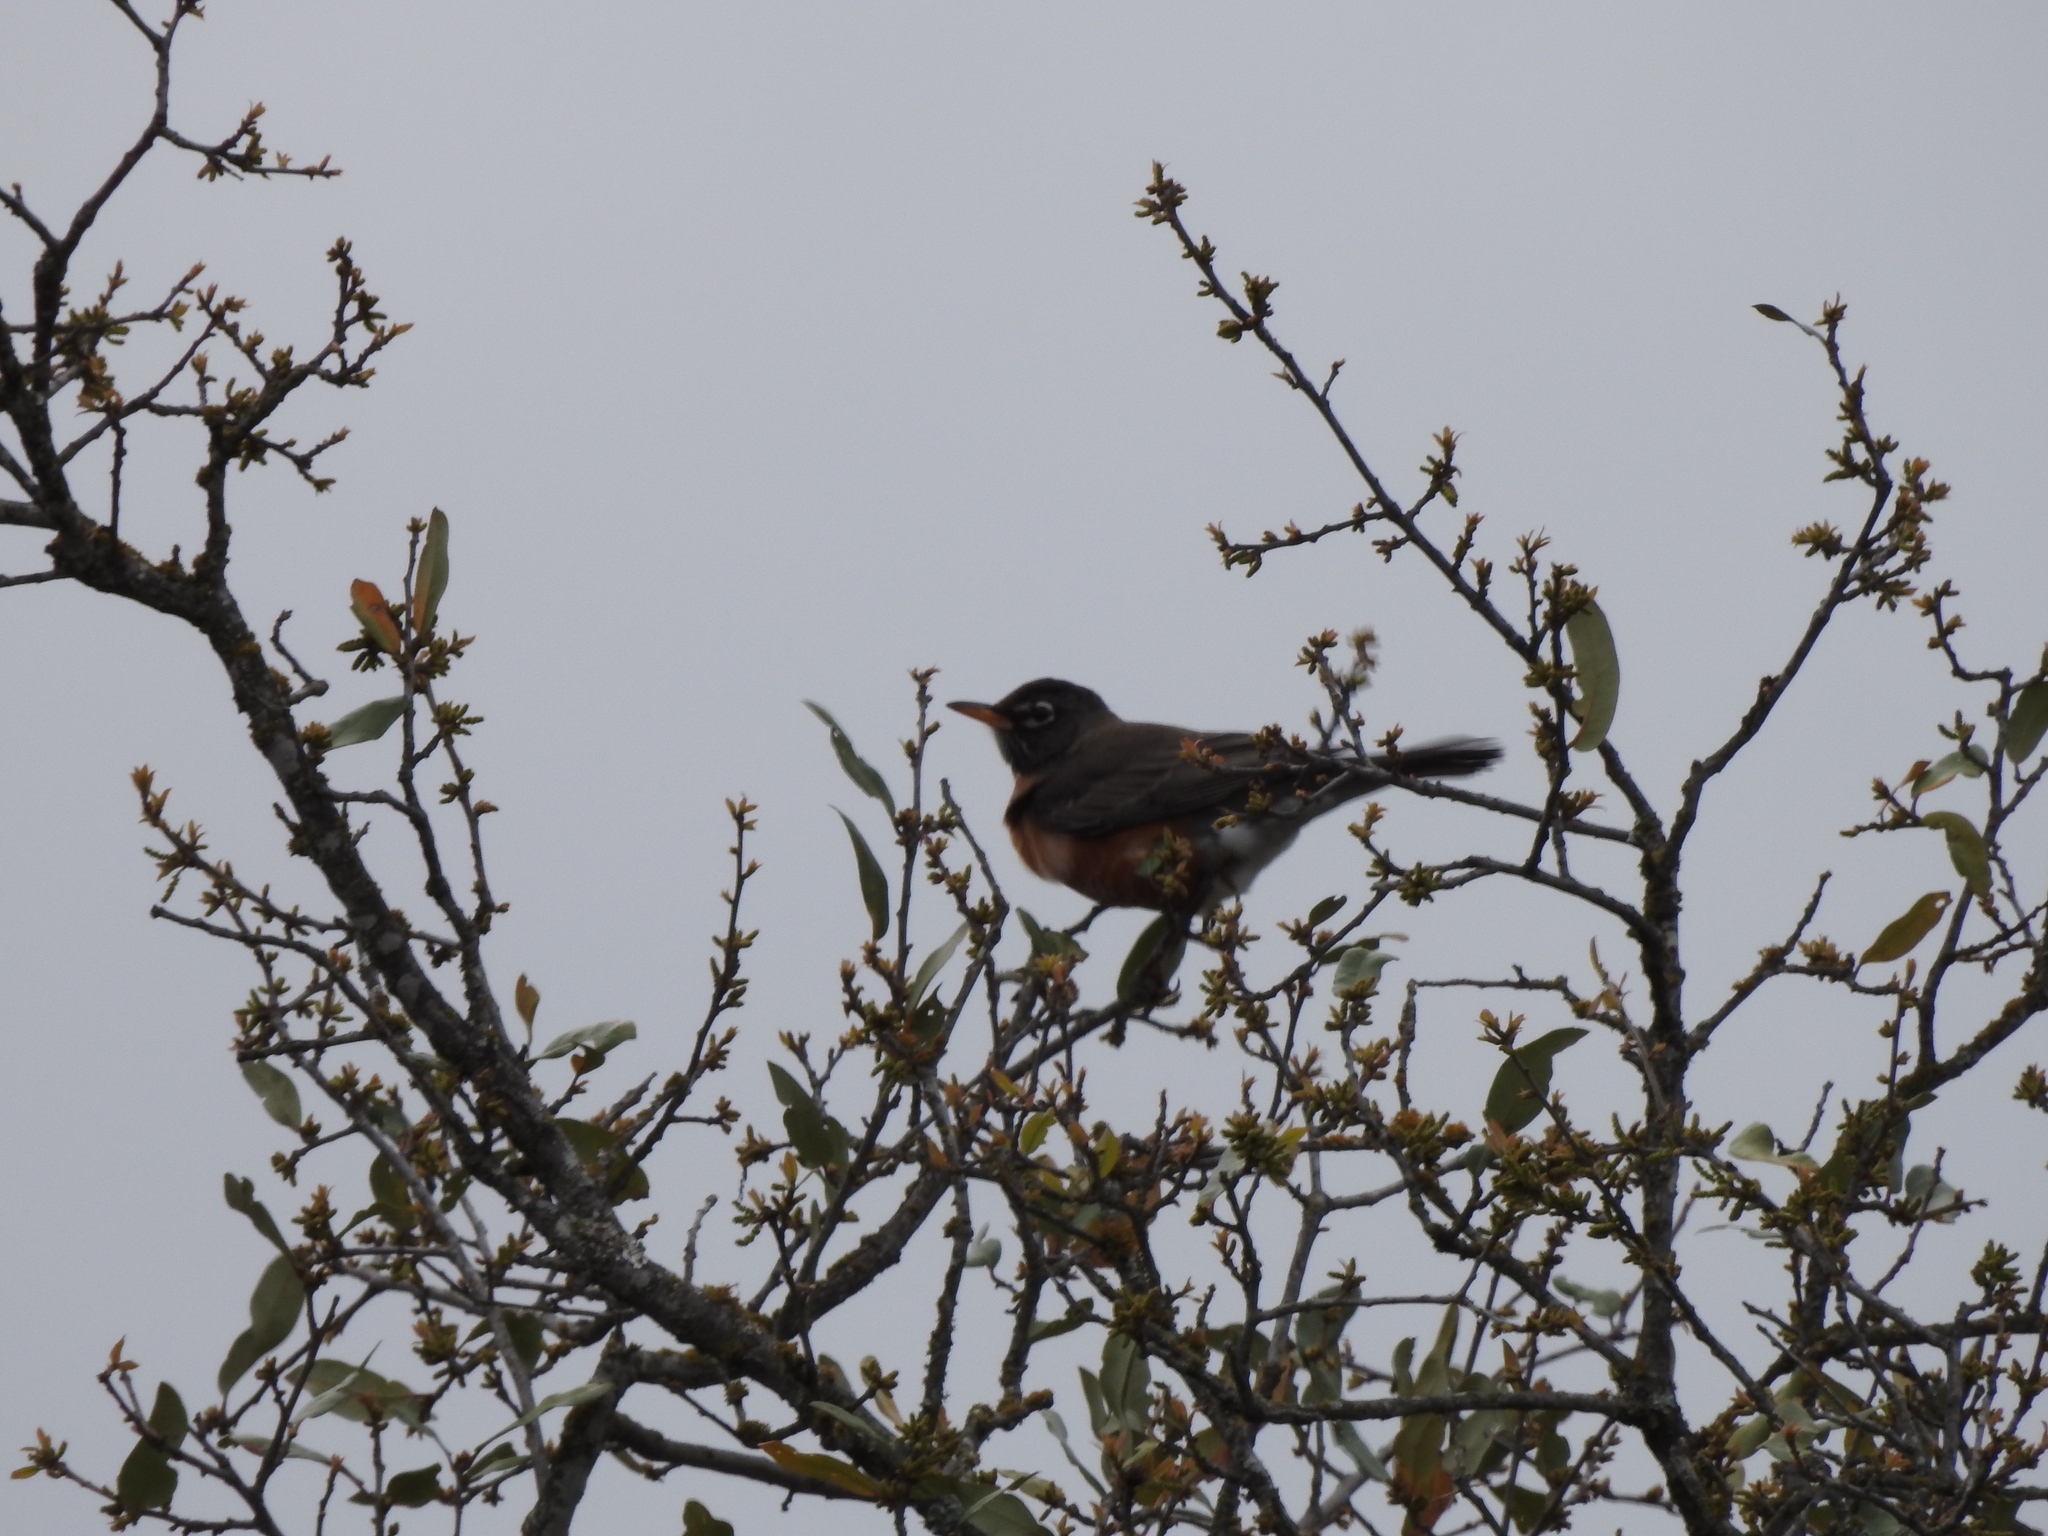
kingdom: Animalia
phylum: Chordata
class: Aves
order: Passeriformes
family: Turdidae
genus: Turdus
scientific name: Turdus migratorius
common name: American robin
